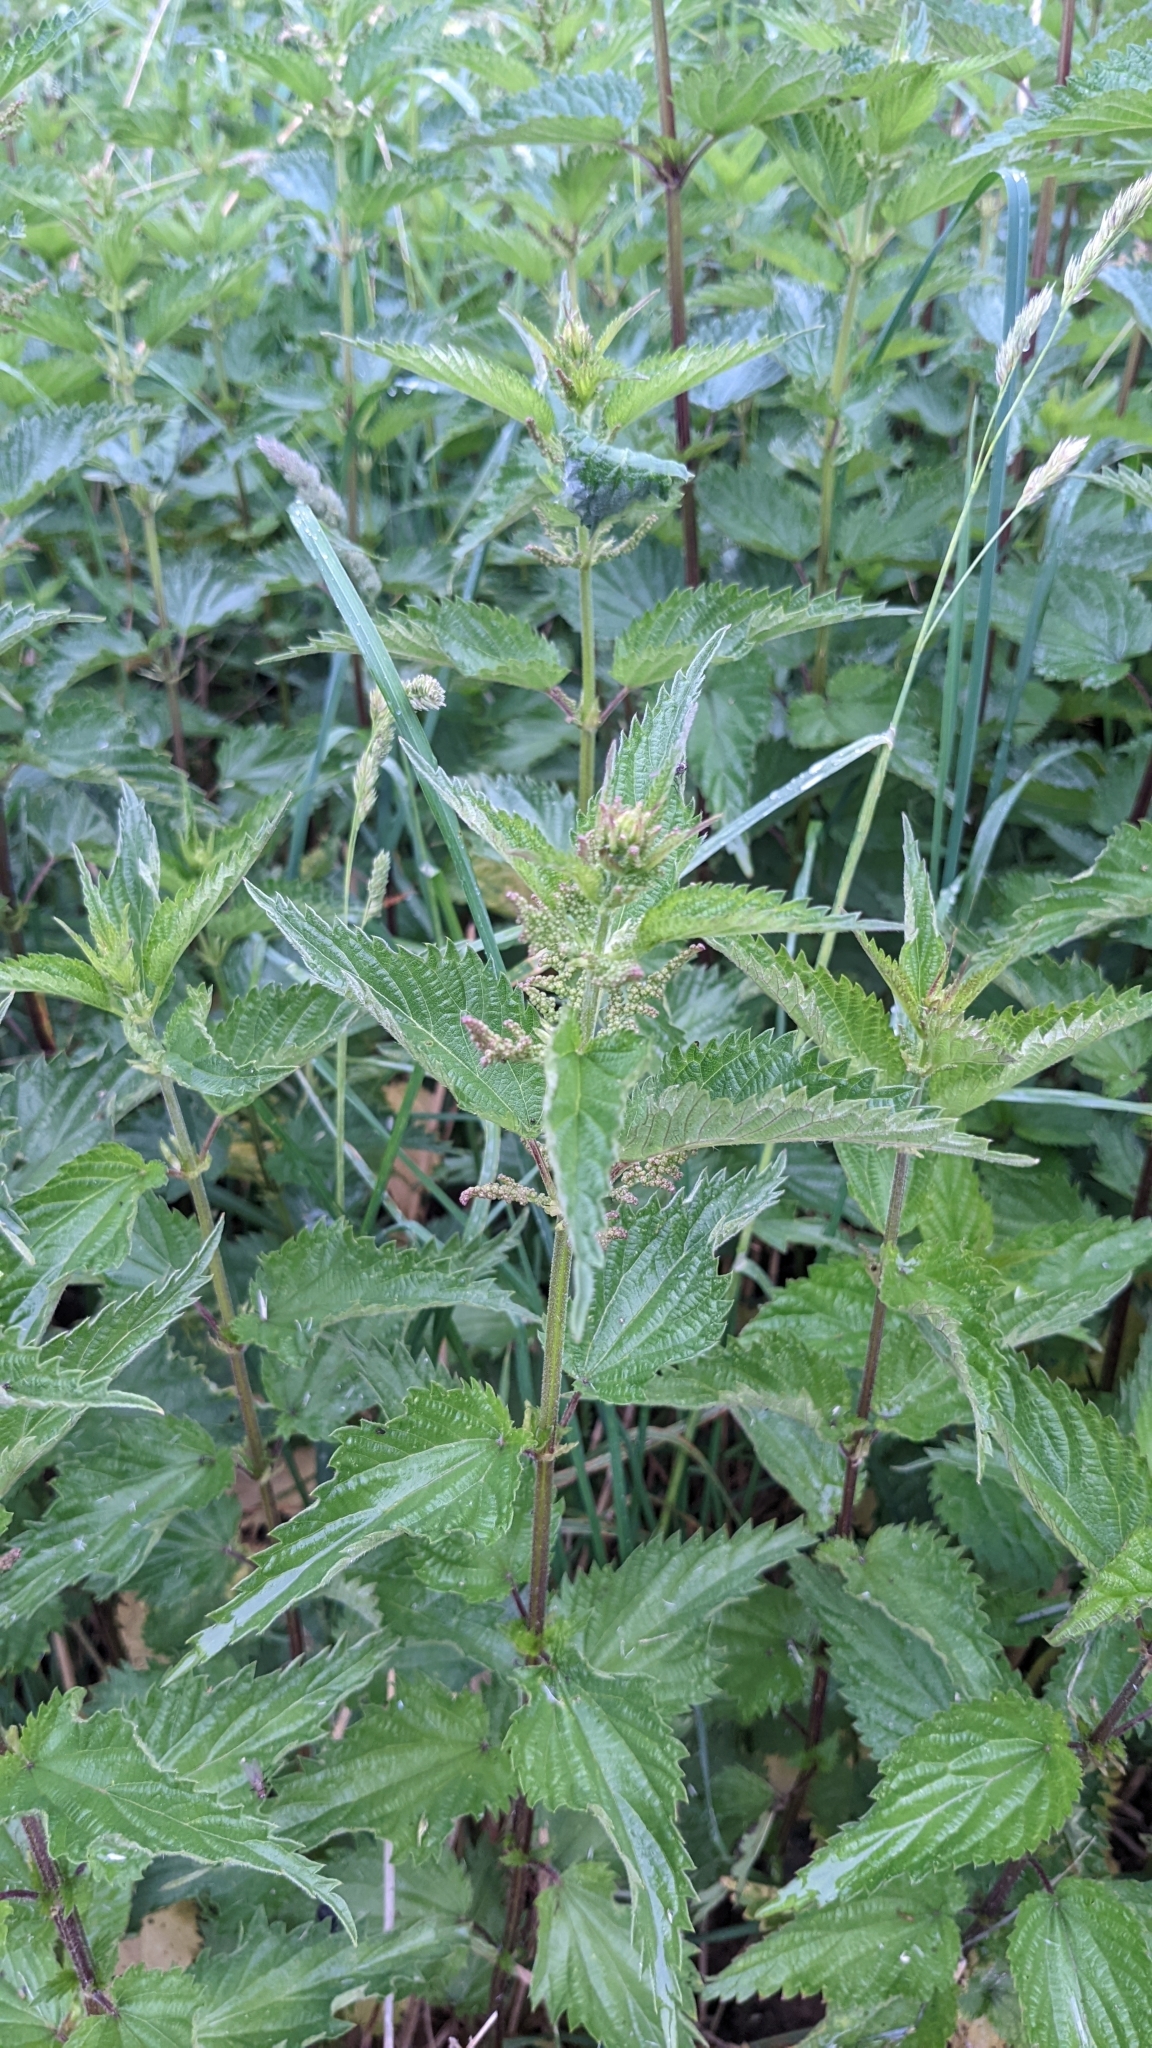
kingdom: Plantae
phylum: Tracheophyta
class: Magnoliopsida
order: Rosales
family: Urticaceae
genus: Urtica
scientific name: Urtica dioica
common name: Common nettle
